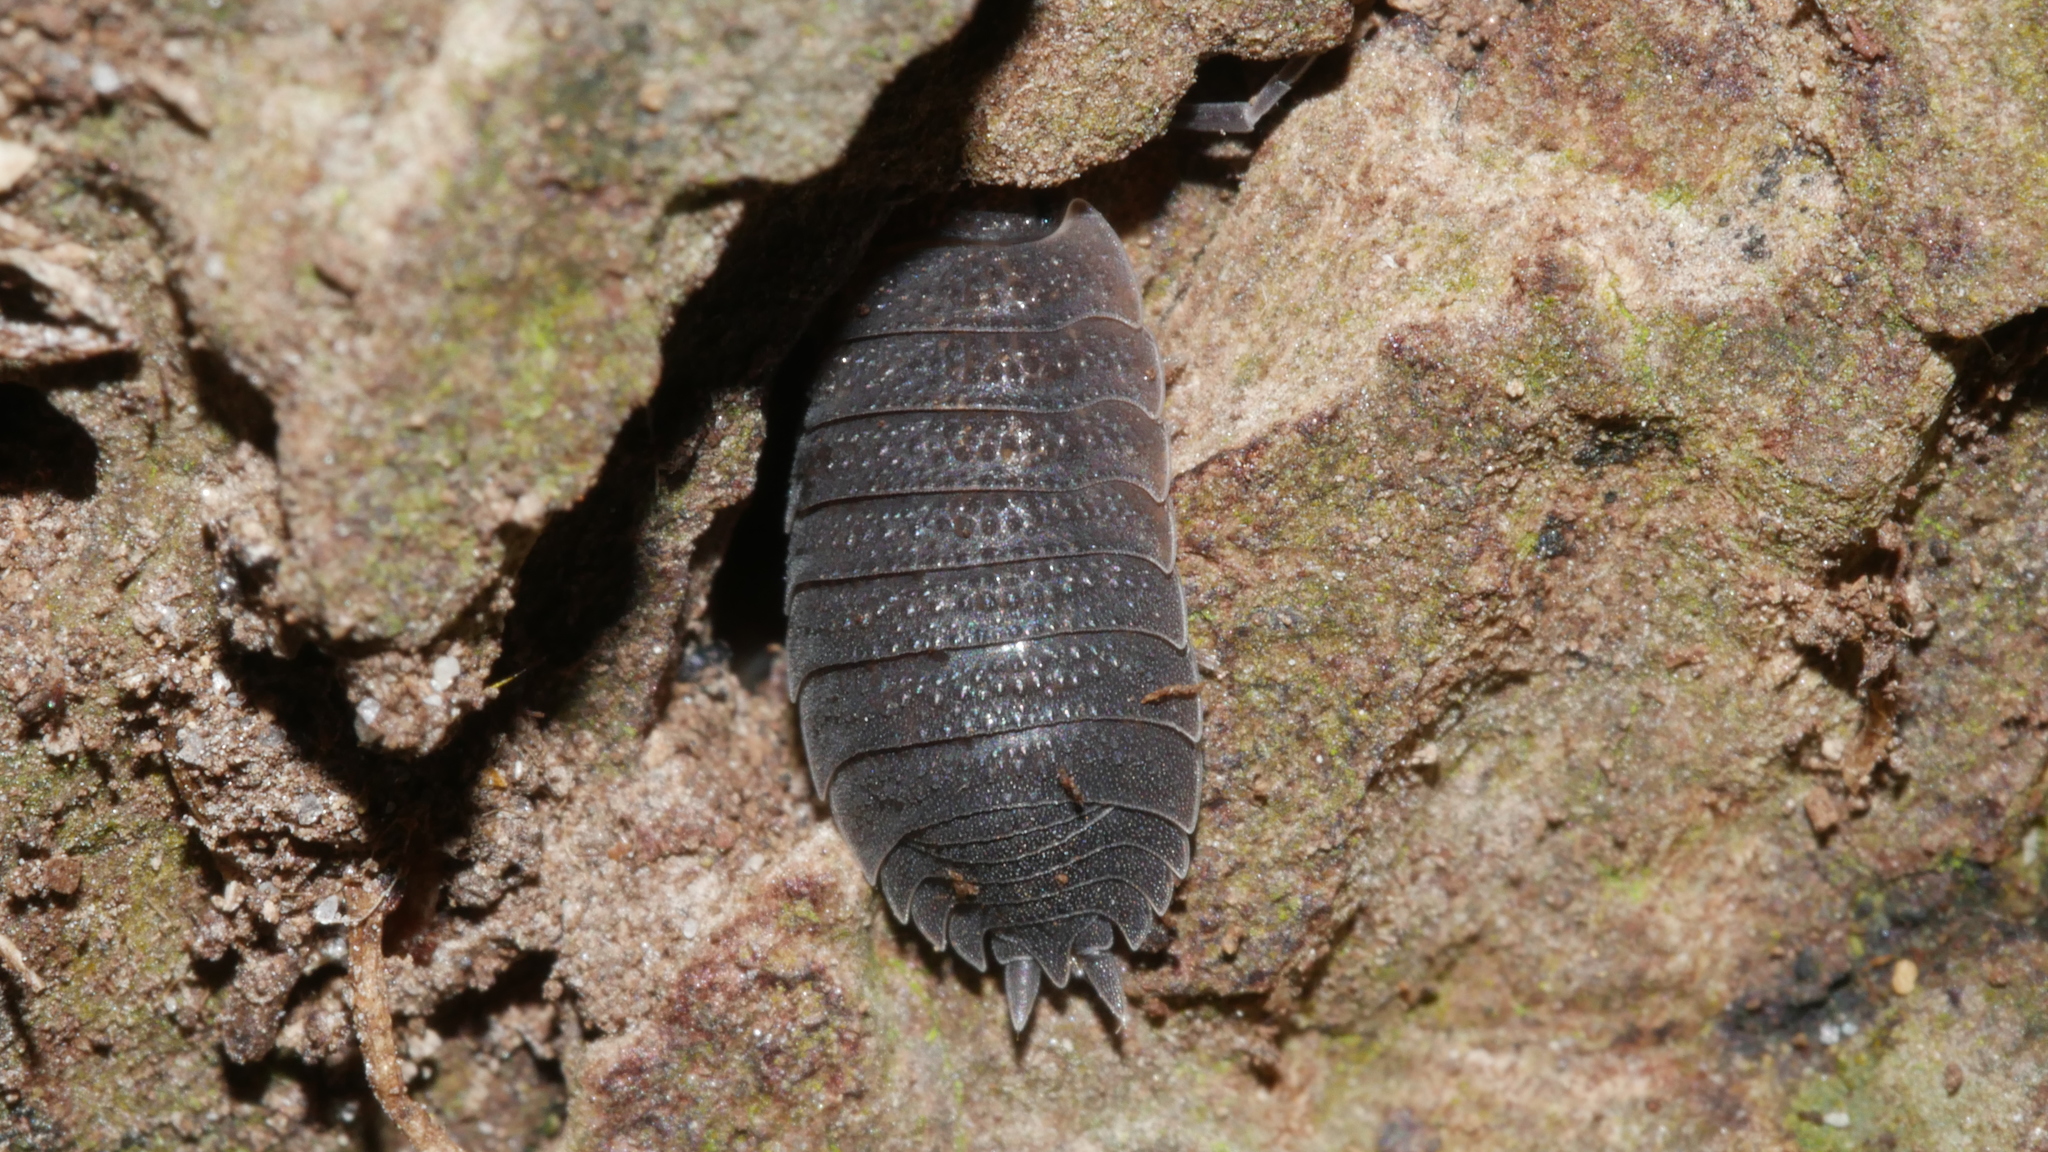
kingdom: Animalia
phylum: Arthropoda
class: Malacostraca
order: Isopoda
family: Porcellionidae
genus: Porcellio
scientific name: Porcellio scaber
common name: Common rough woodlouse
